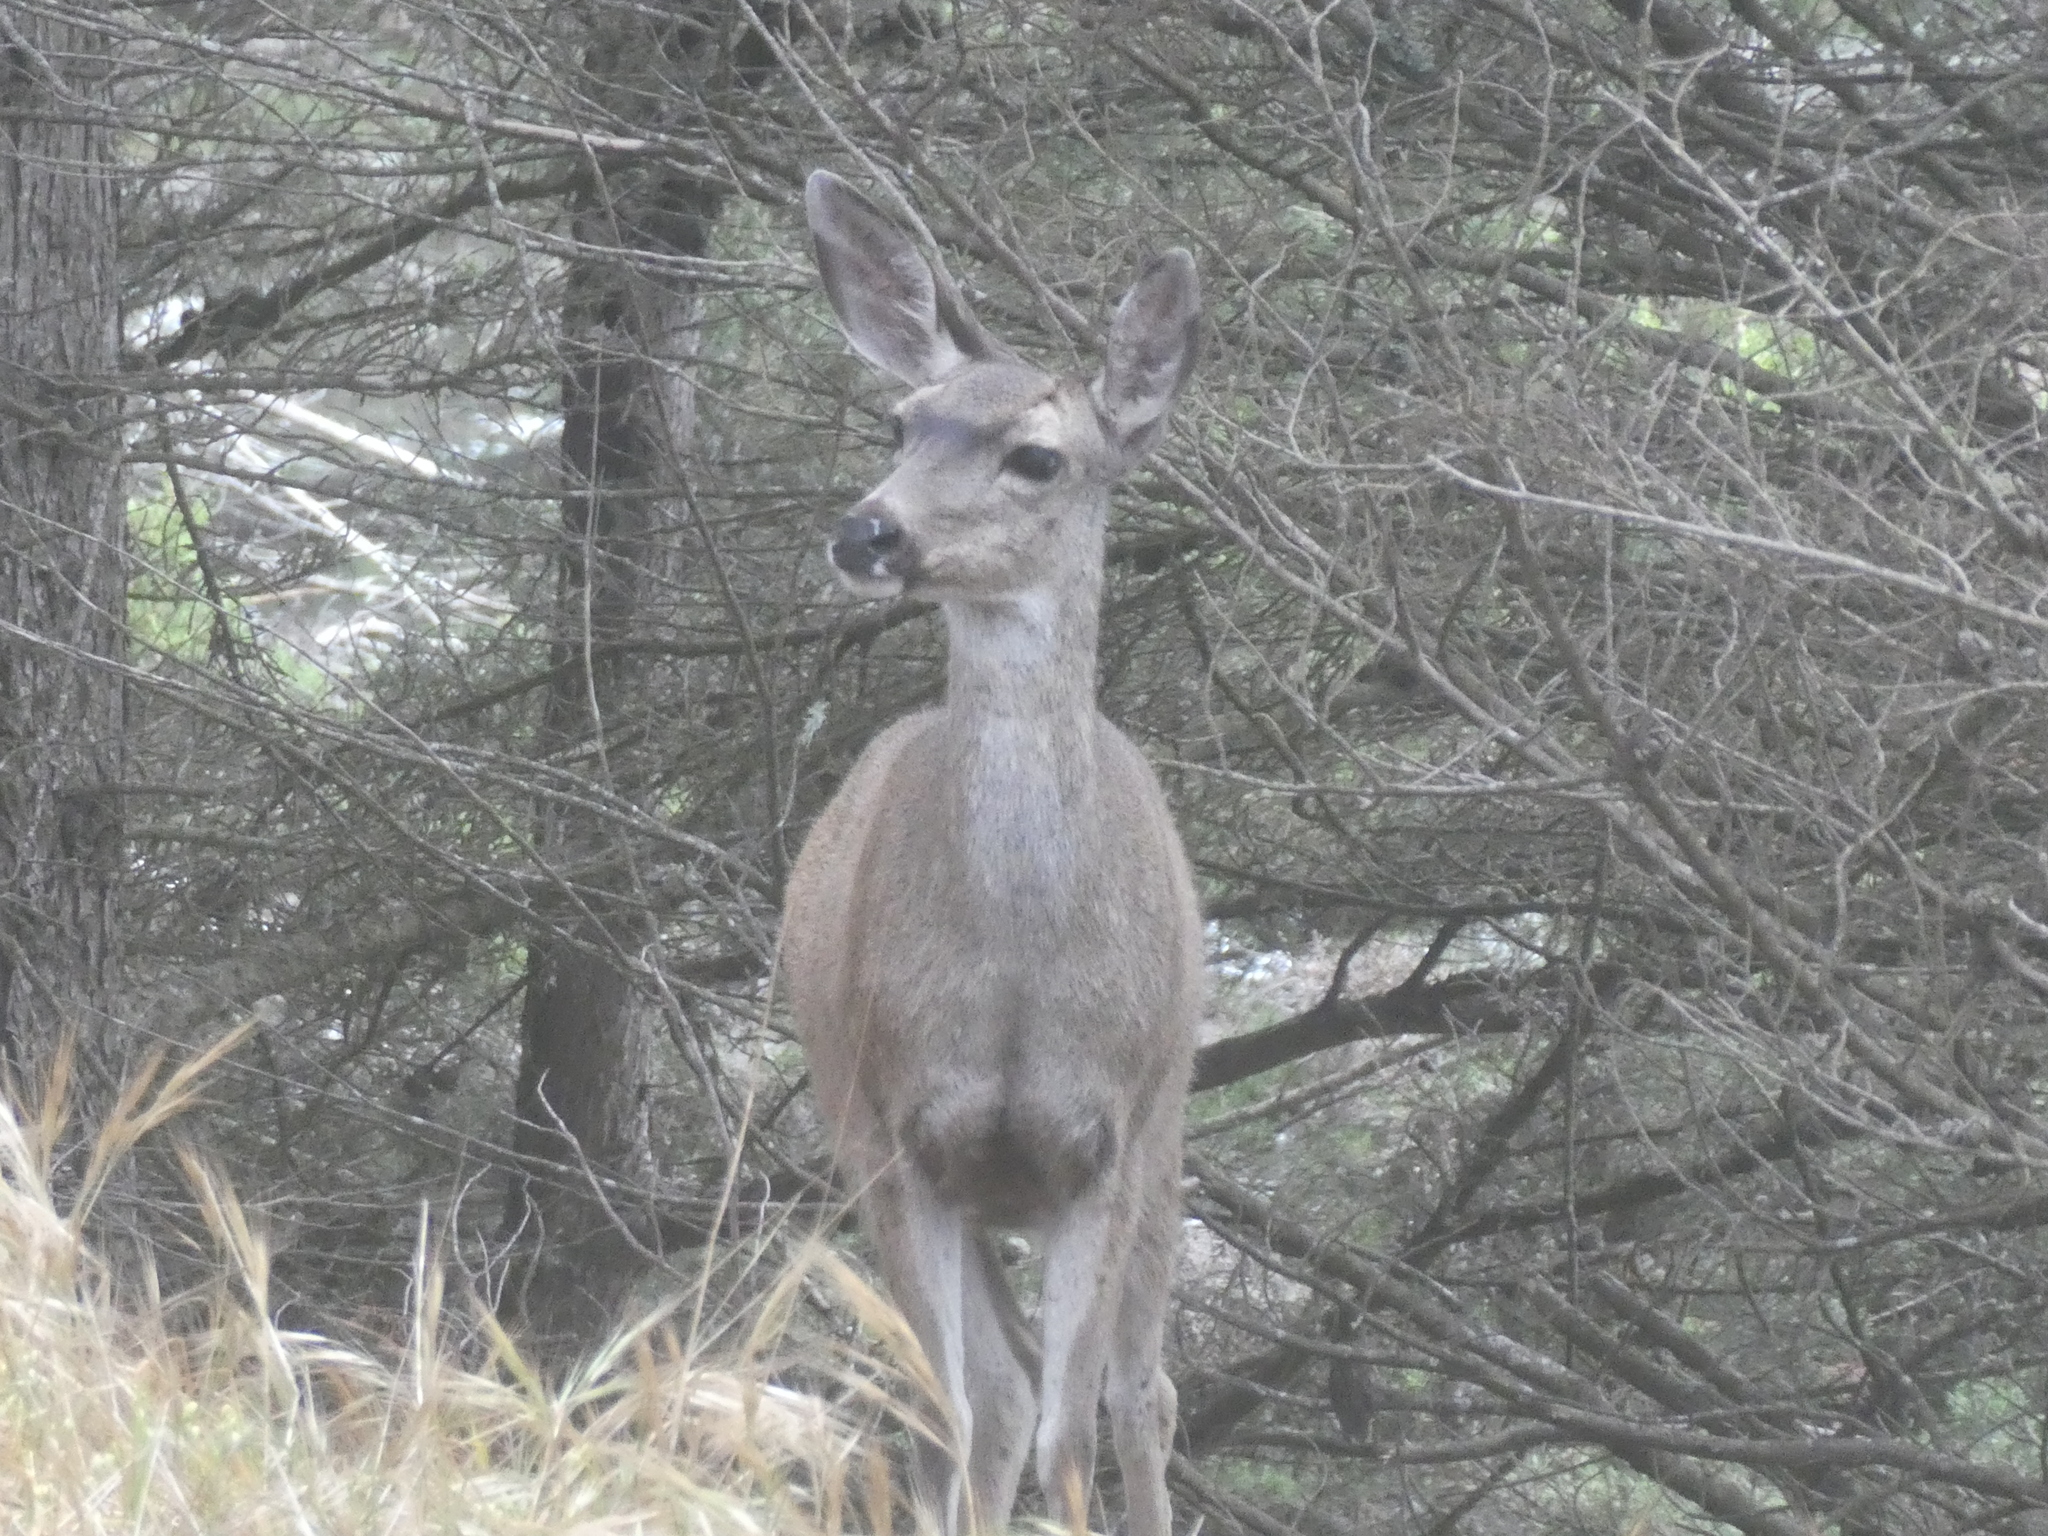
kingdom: Animalia
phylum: Chordata
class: Mammalia
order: Artiodactyla
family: Cervidae
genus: Odocoileus
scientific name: Odocoileus hemionus
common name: Mule deer
